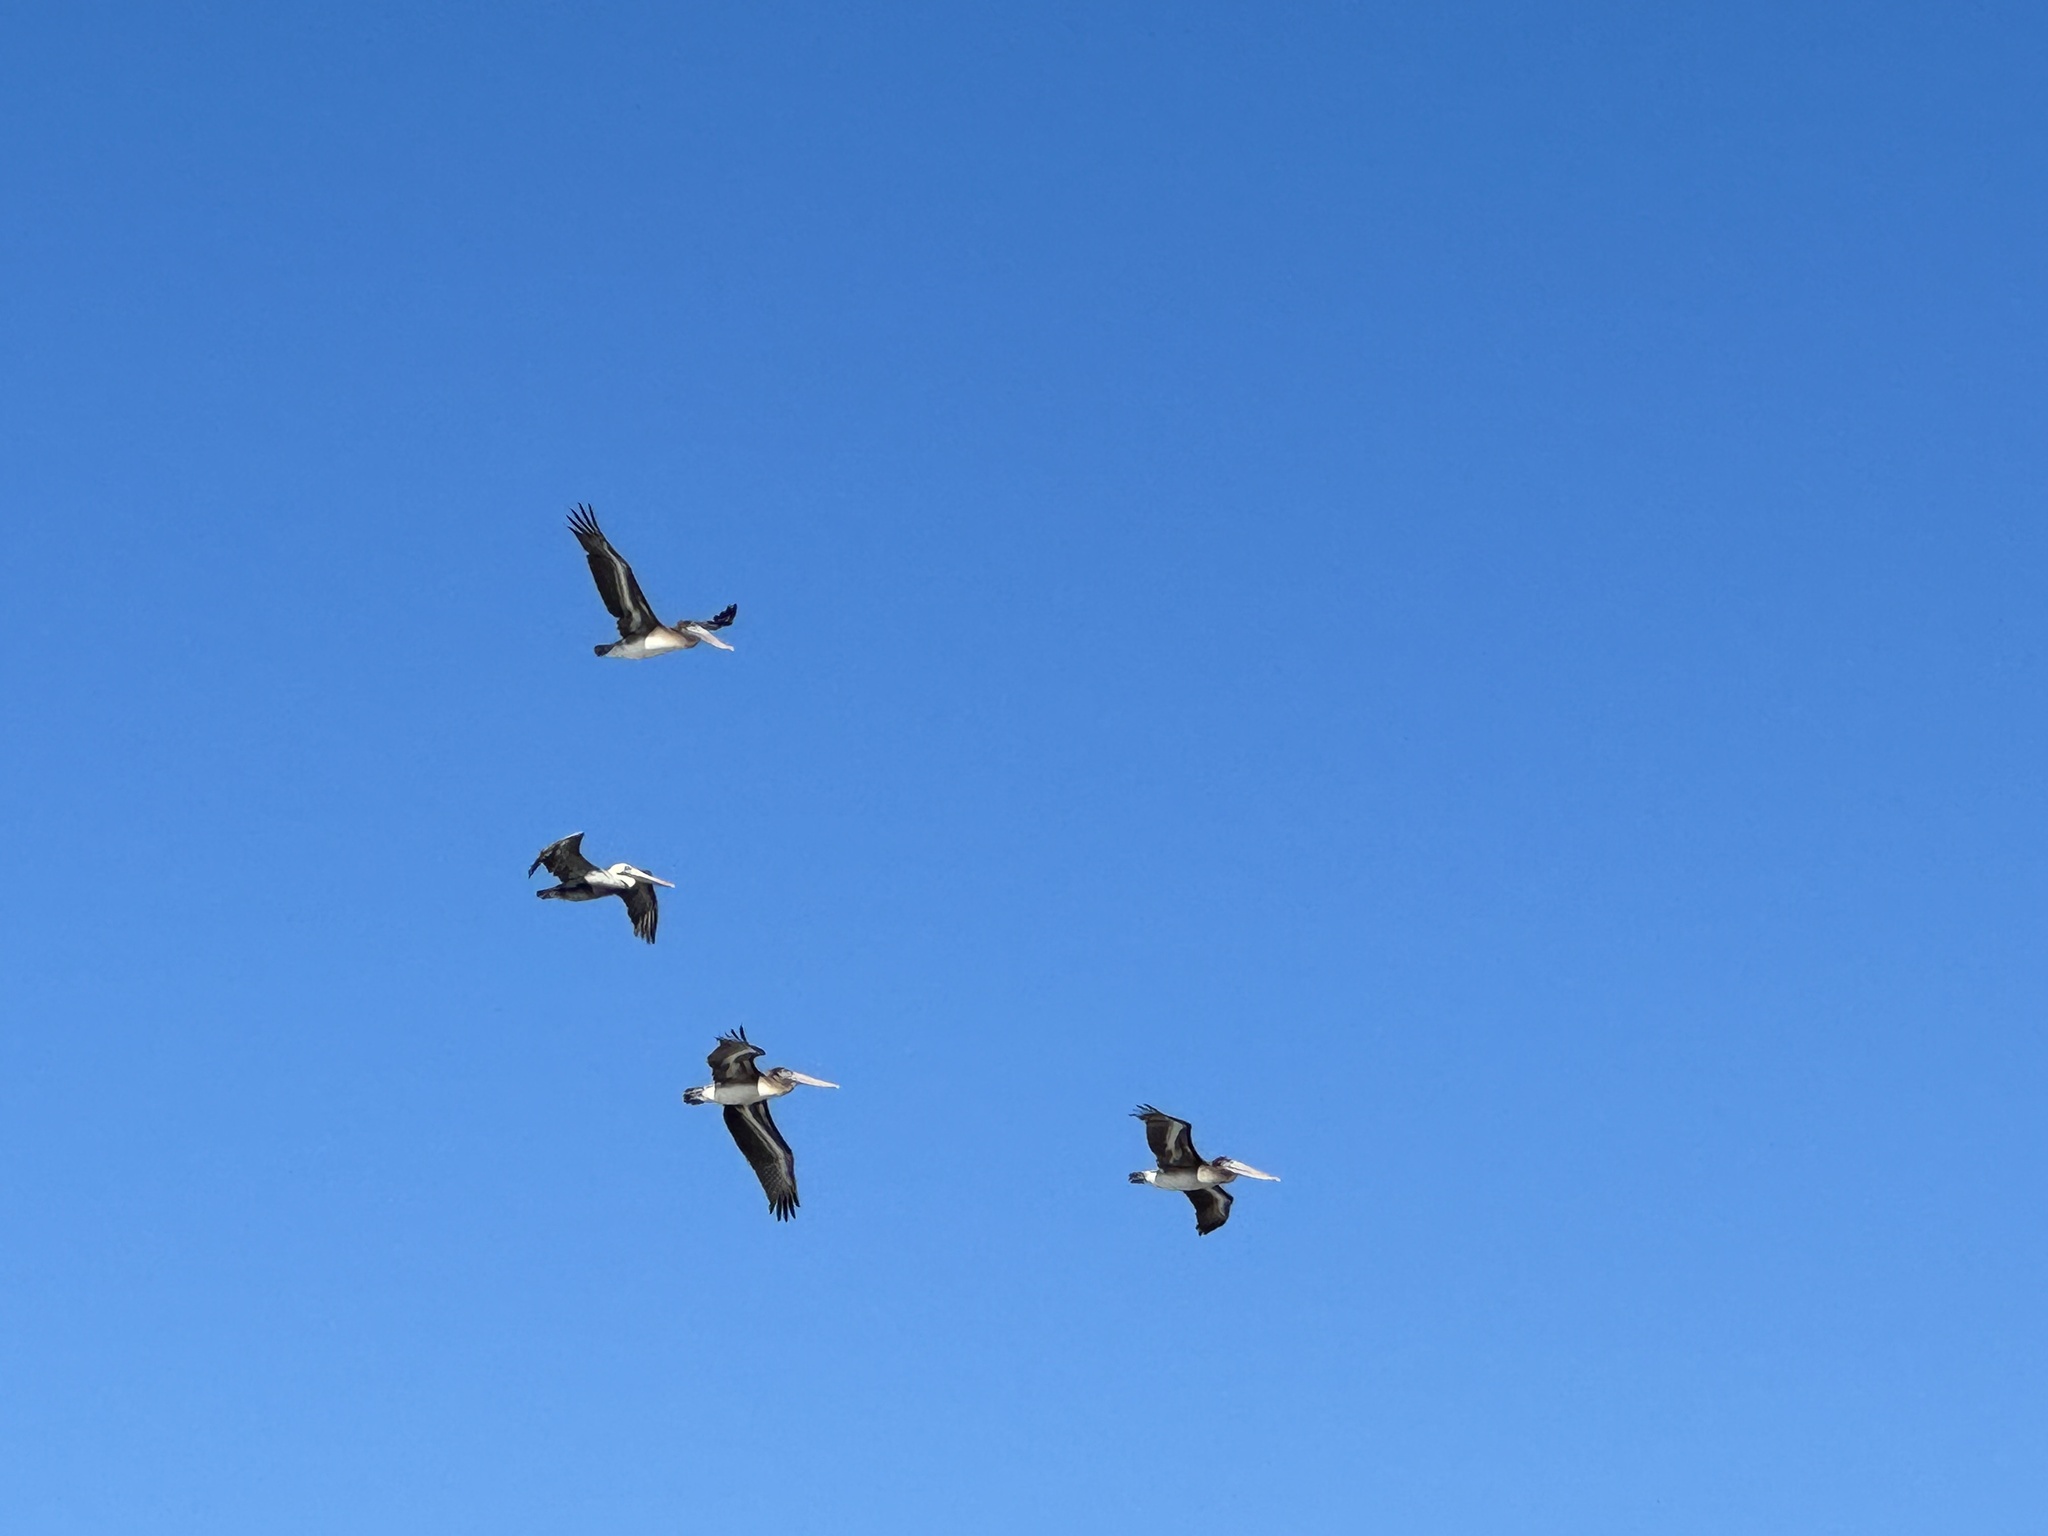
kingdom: Animalia
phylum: Chordata
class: Aves
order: Pelecaniformes
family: Pelecanidae
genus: Pelecanus
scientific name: Pelecanus occidentalis
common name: Brown pelican
